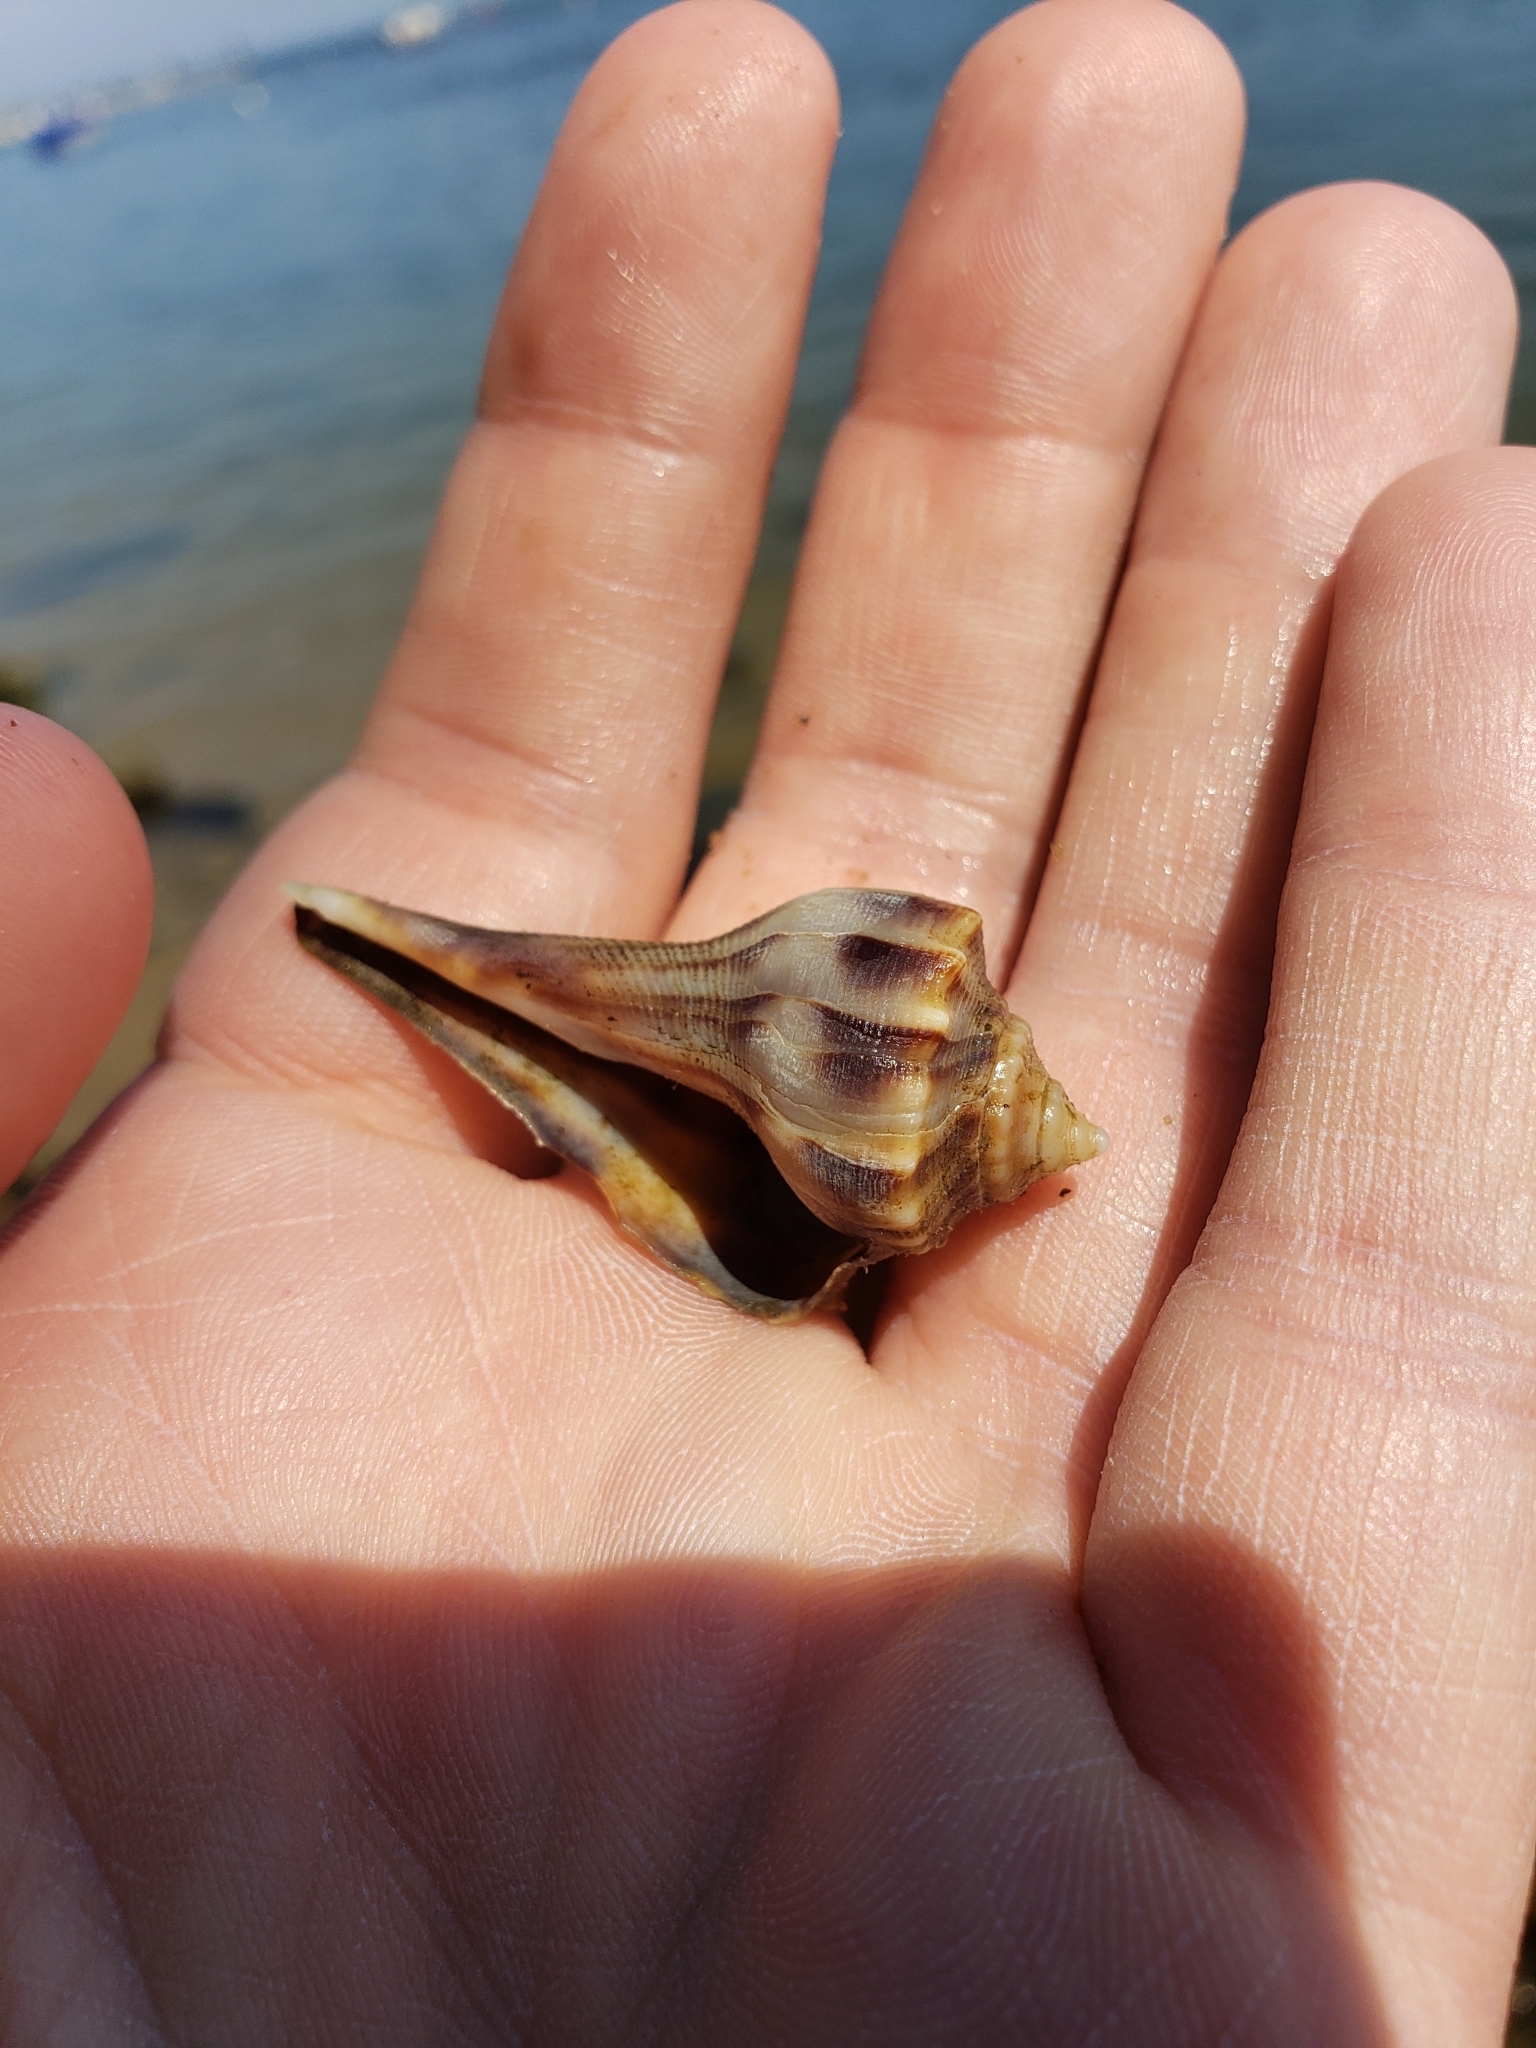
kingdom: Animalia
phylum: Mollusca
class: Gastropoda
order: Neogastropoda
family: Busyconidae
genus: Busycon
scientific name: Busycon carica
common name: Knobbed whelk
